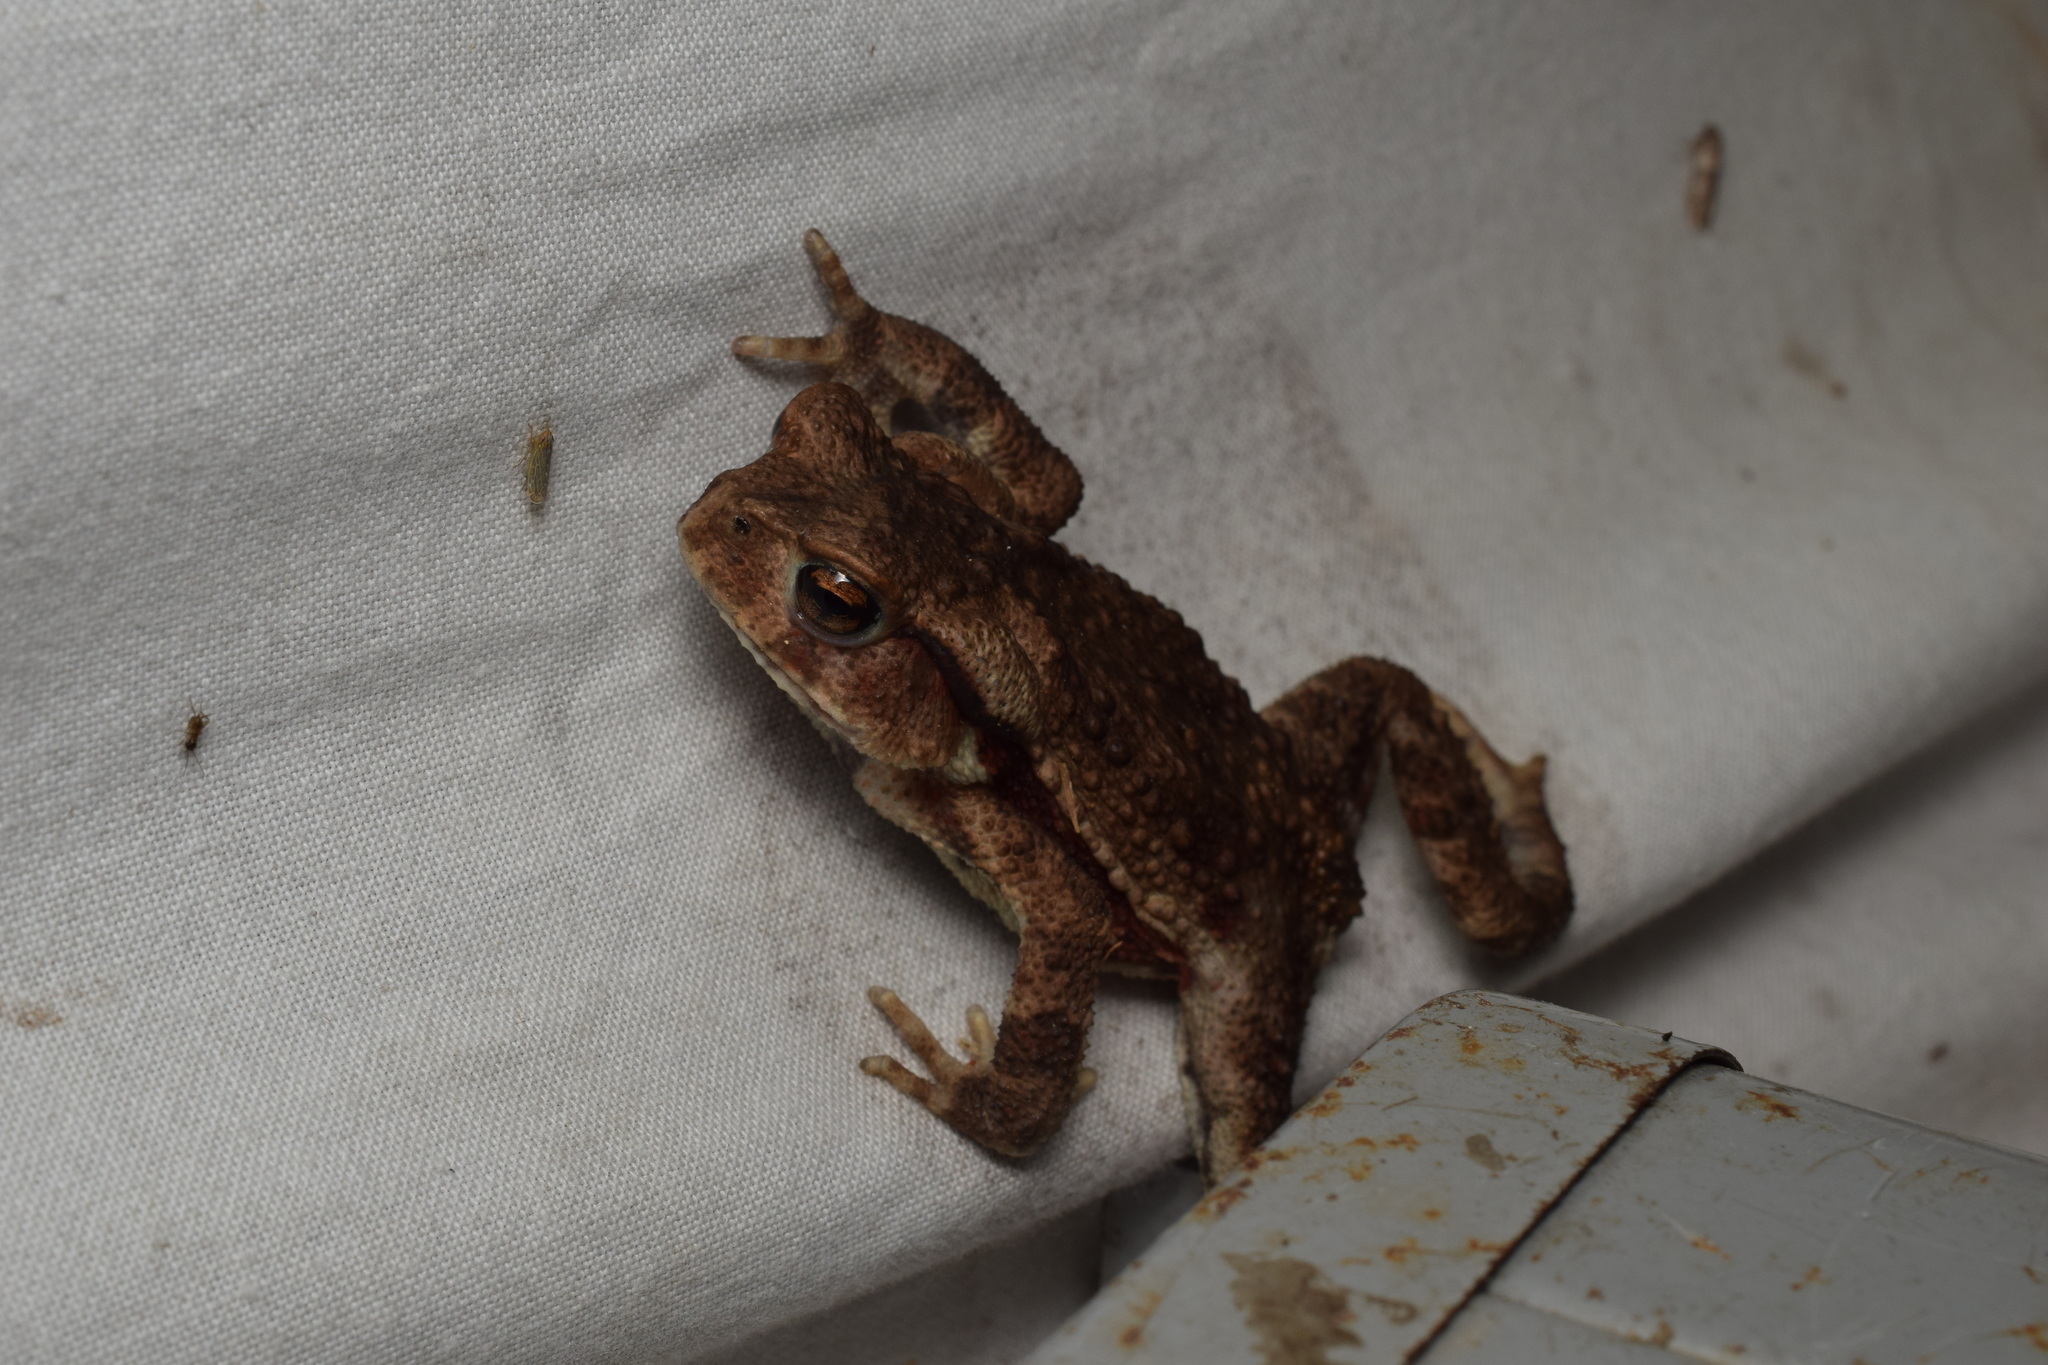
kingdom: Animalia
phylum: Chordata
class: Amphibia
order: Anura
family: Bufonidae
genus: Bufo
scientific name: Bufo
